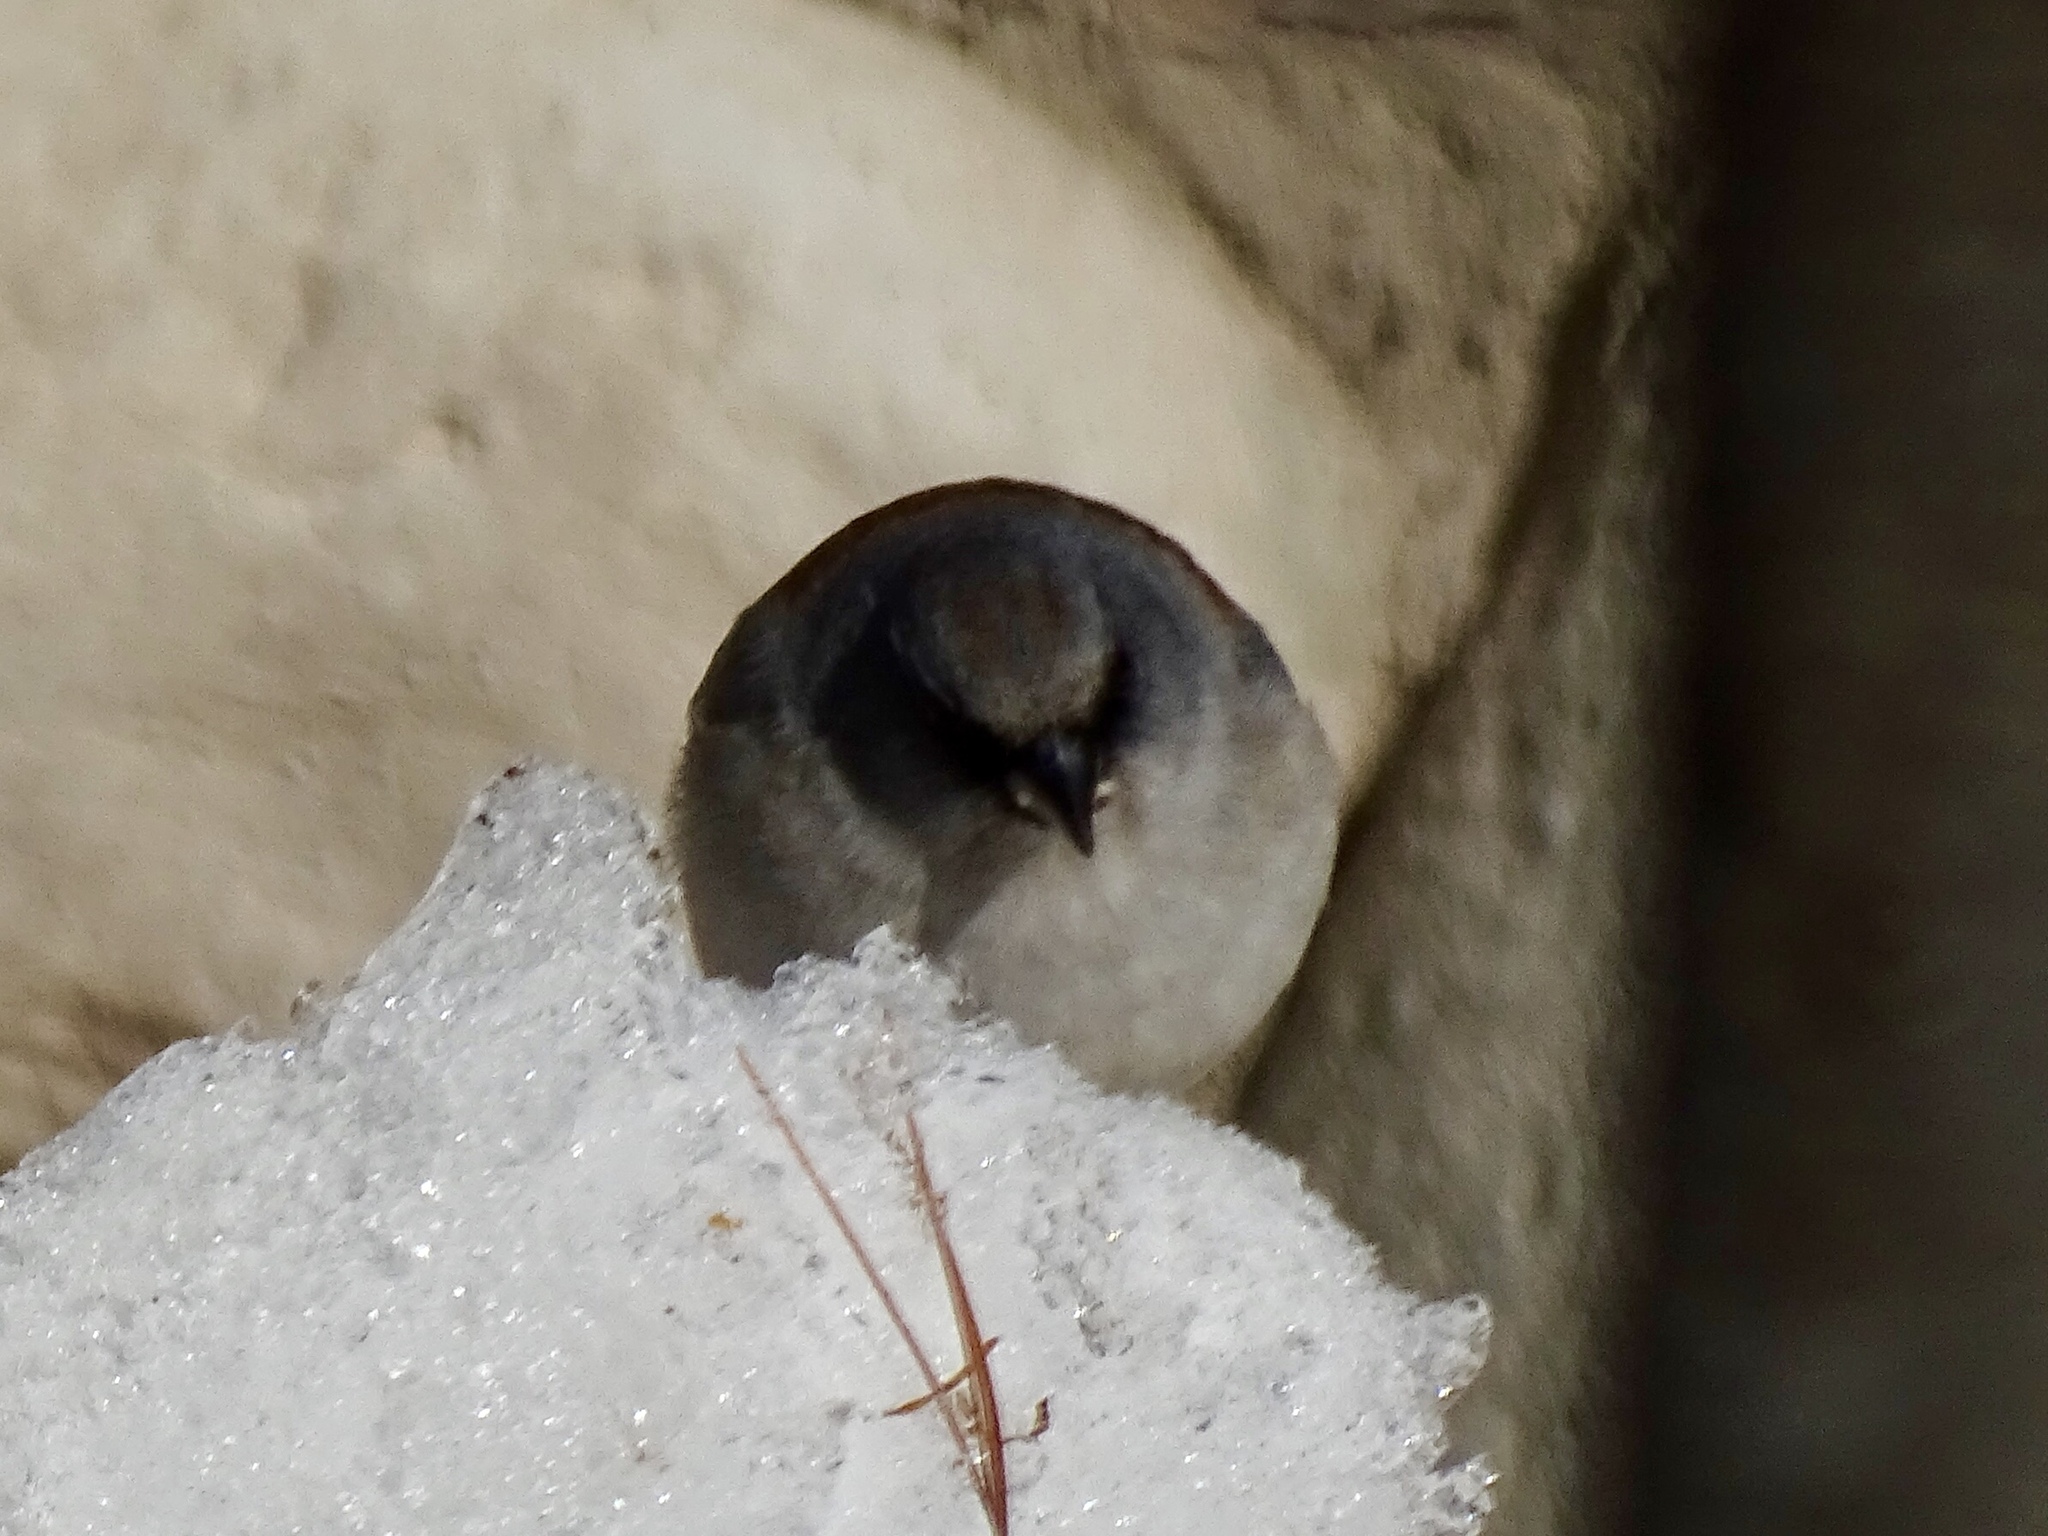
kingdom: Animalia
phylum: Chordata
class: Aves
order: Passeriformes
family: Passerellidae
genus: Junco
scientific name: Junco hyemalis
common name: Dark-eyed junco
